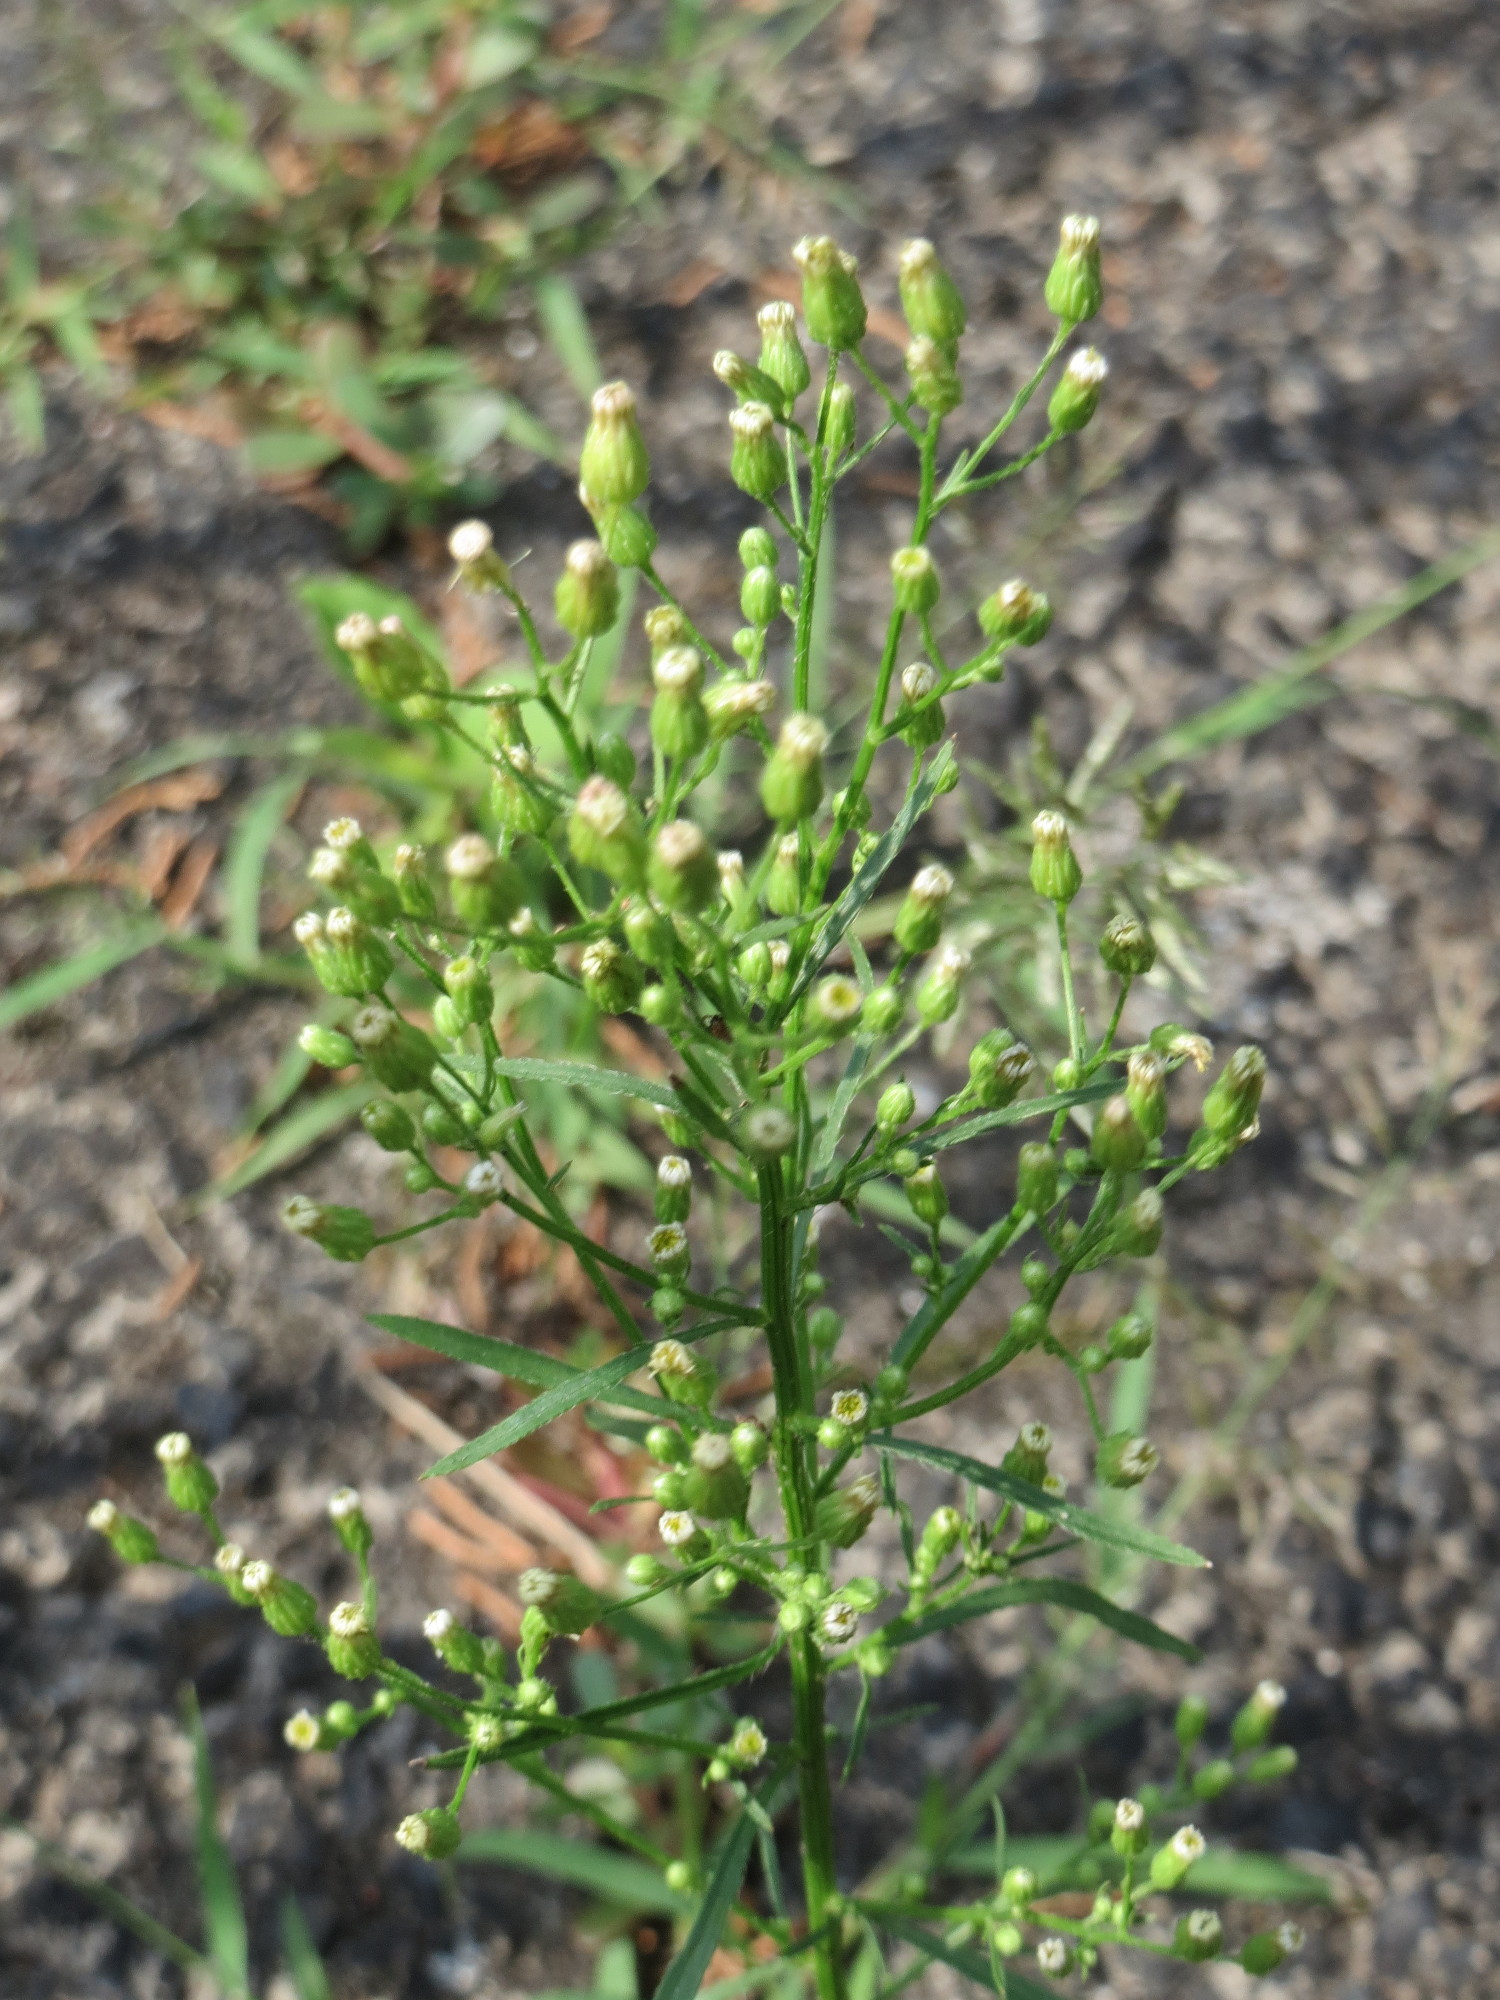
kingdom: Plantae
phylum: Tracheophyta
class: Magnoliopsida
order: Asterales
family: Asteraceae
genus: Erigeron
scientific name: Erigeron canadensis
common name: Canadian fleabane
